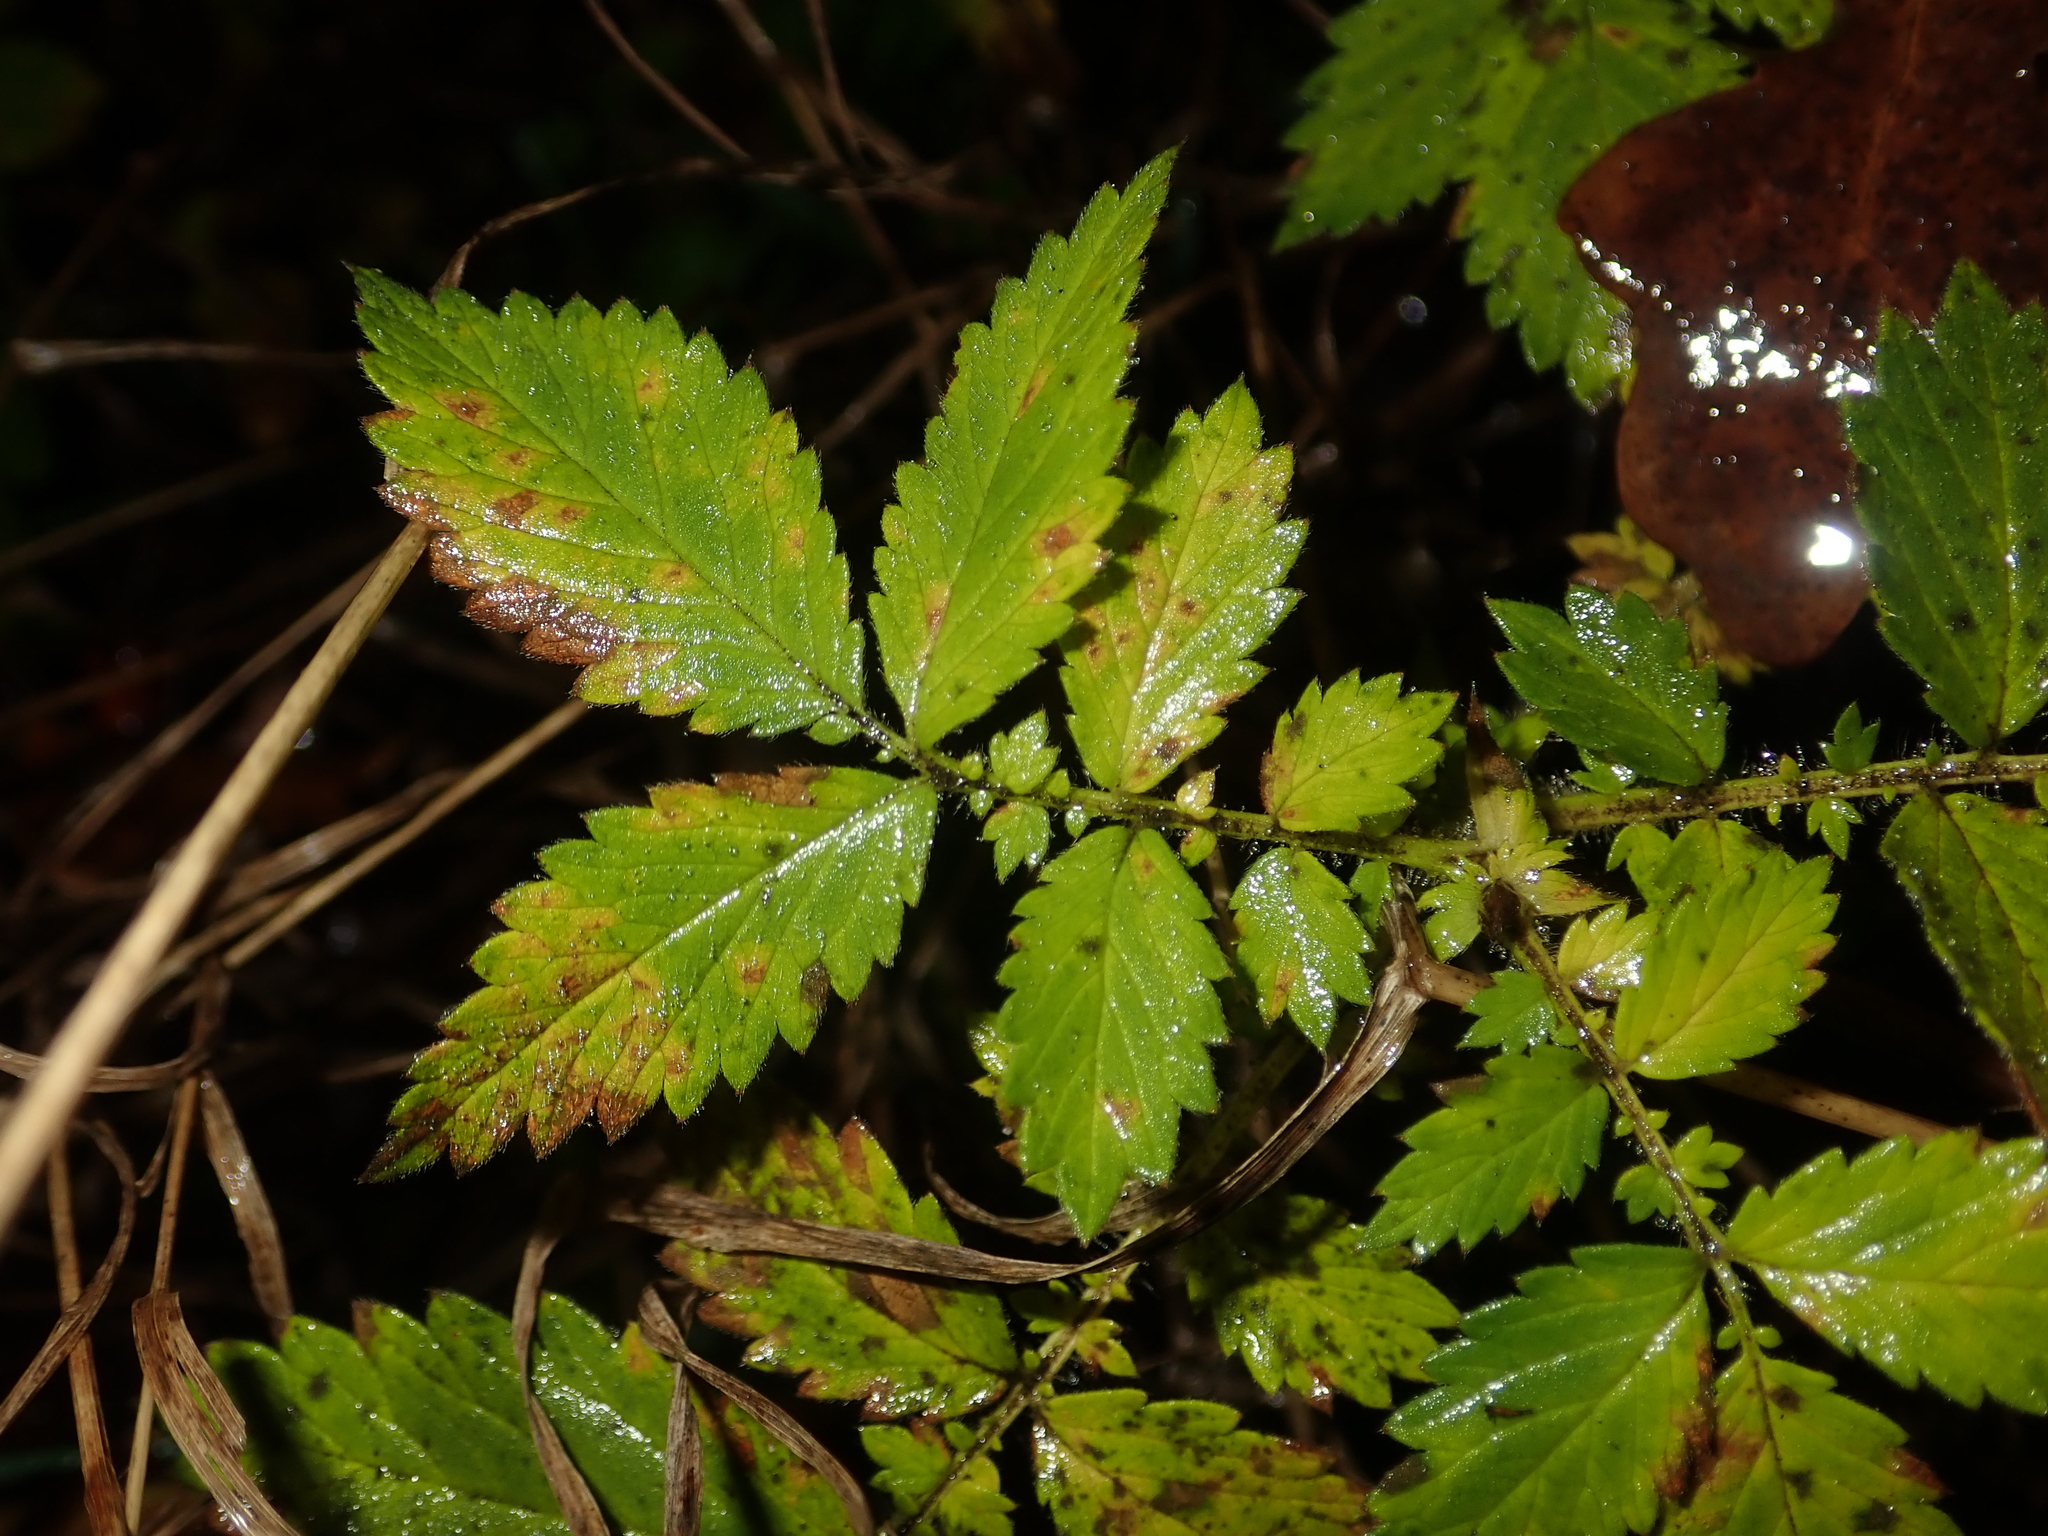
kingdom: Plantae
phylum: Tracheophyta
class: Magnoliopsida
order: Rosales
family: Rosaceae
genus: Agrimonia
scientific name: Agrimonia eupatoria
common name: Agrimony
